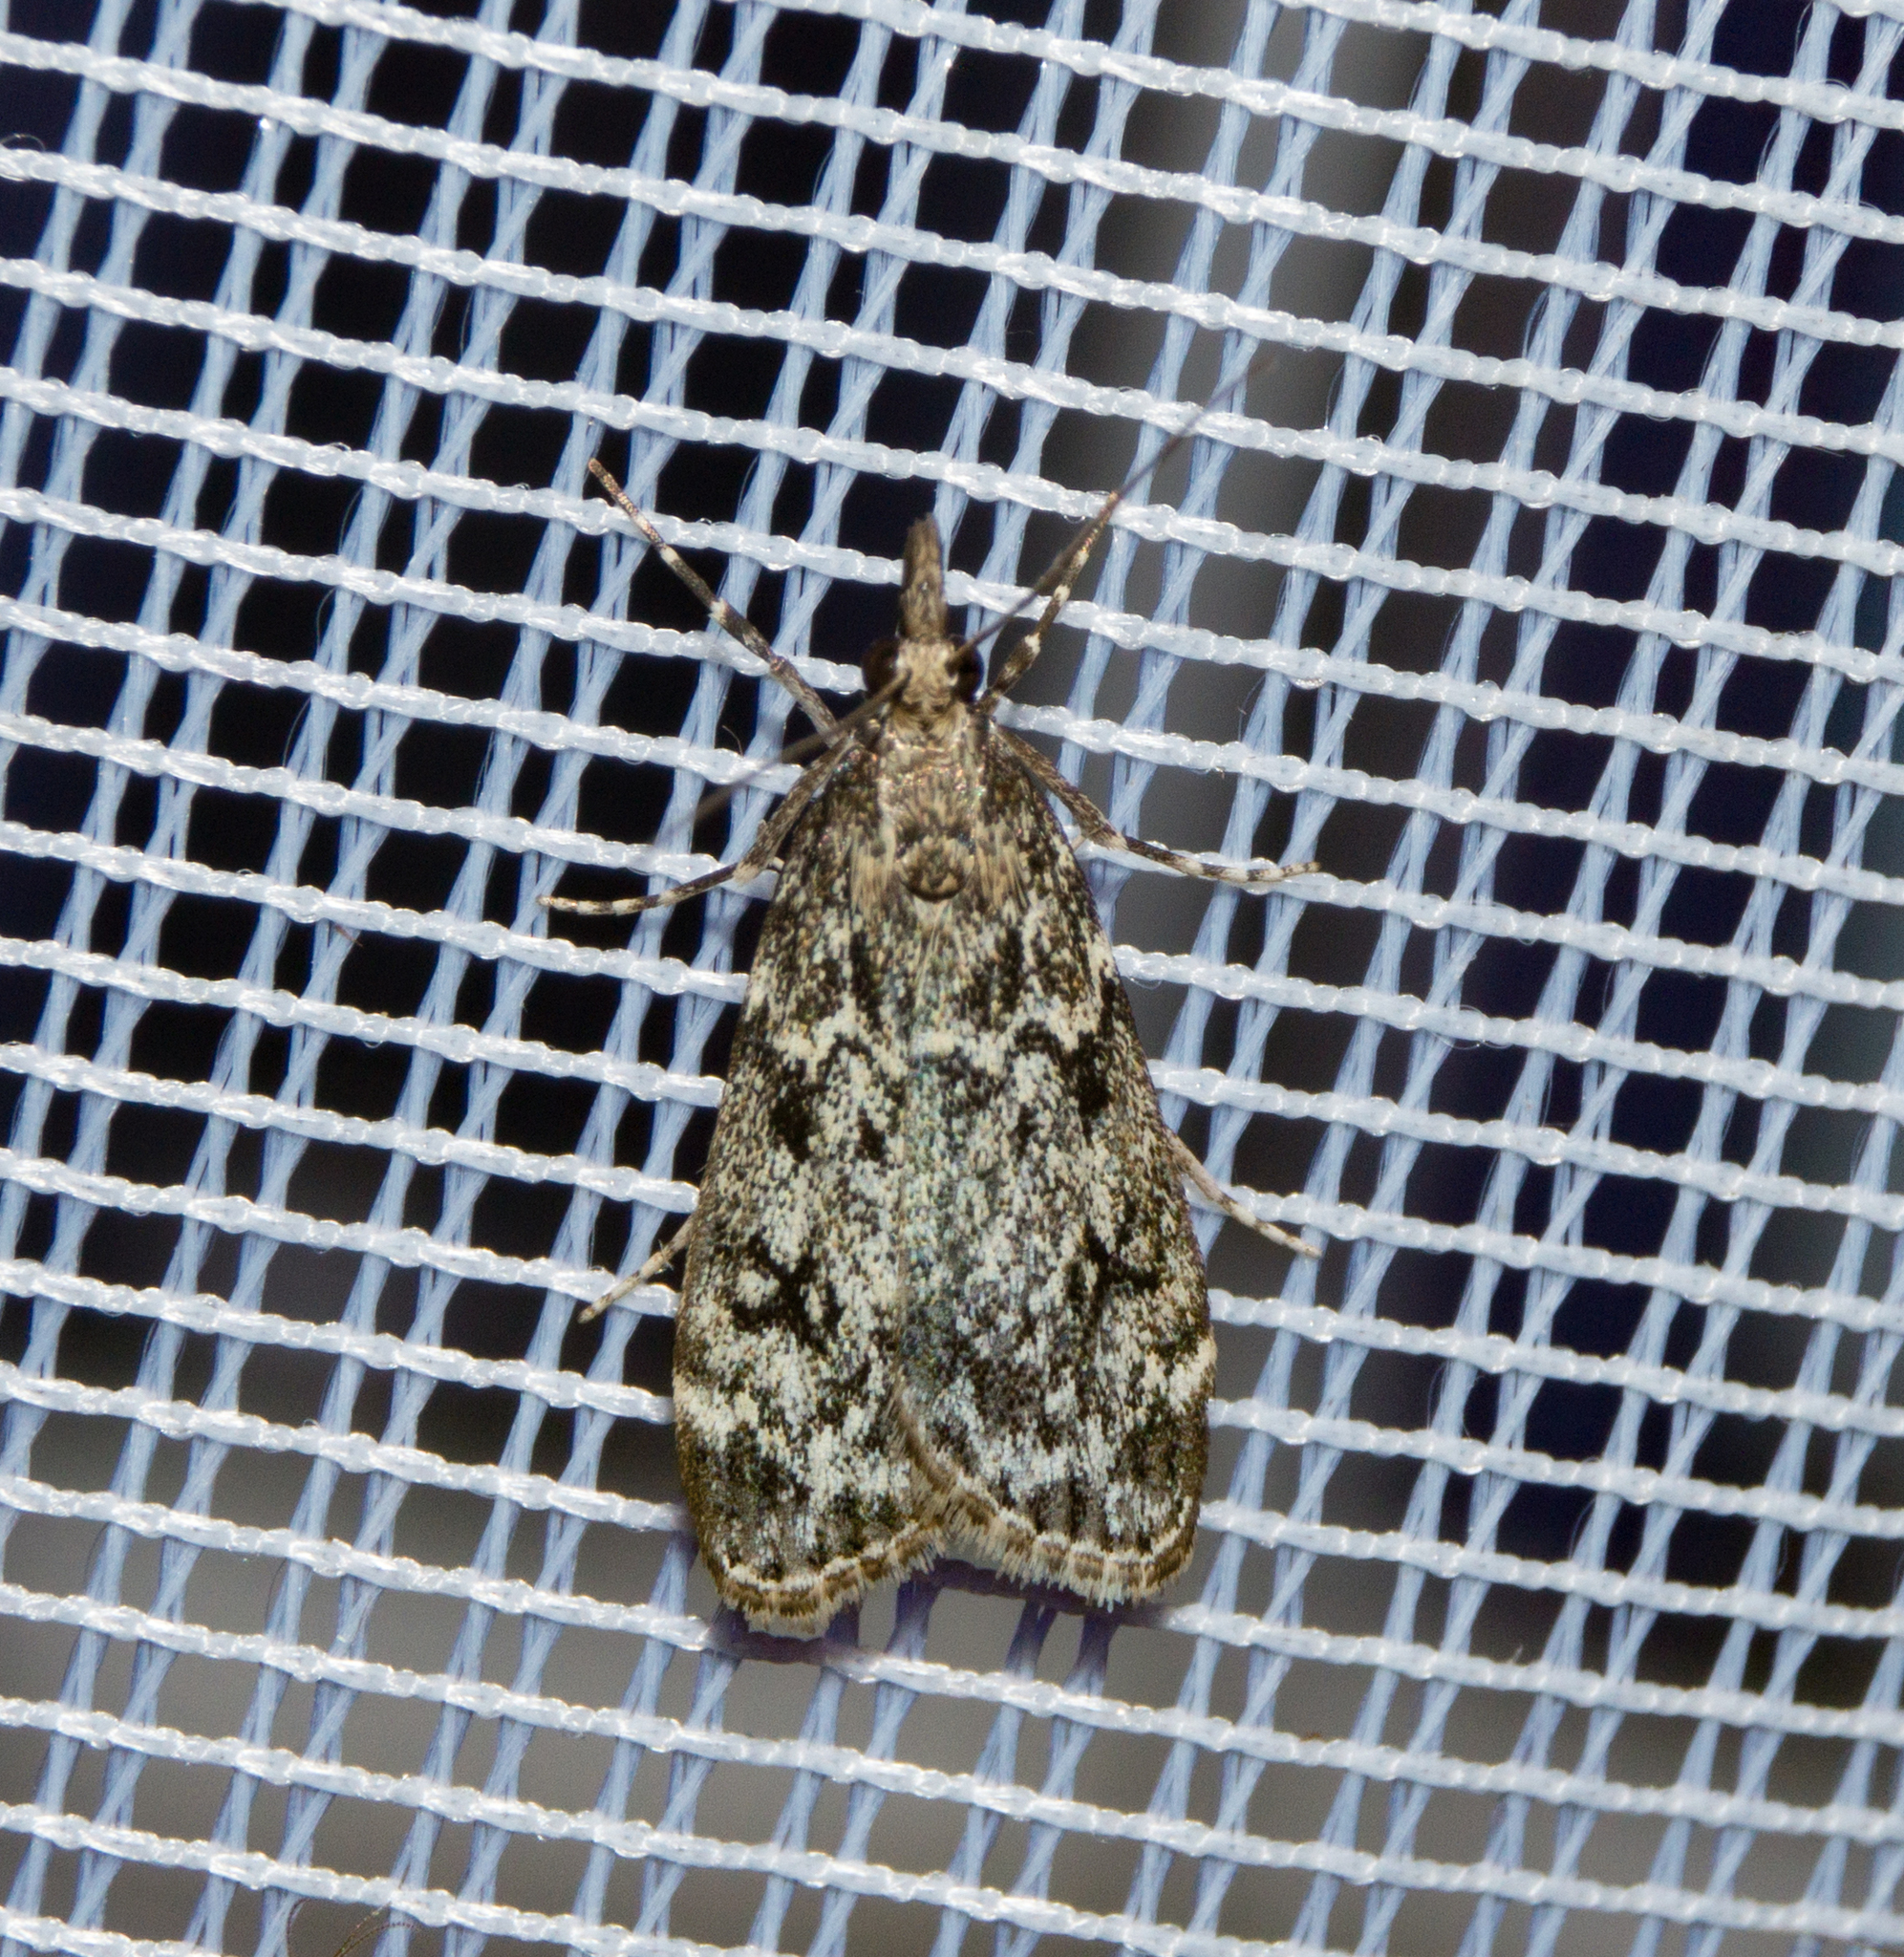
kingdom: Animalia
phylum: Arthropoda
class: Insecta
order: Lepidoptera
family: Crambidae
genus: Eudonia
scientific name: Eudonia truncicolella
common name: Ground-moss grey
